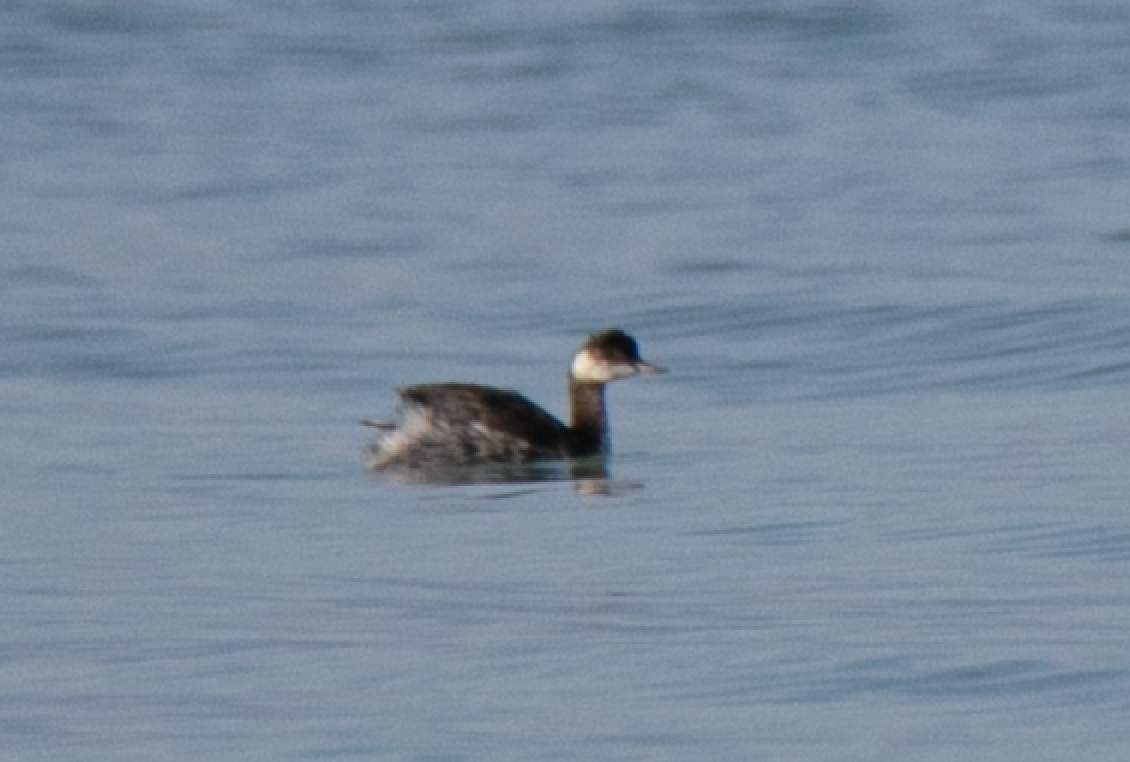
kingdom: Animalia
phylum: Chordata
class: Aves
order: Podicipediformes
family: Podicipedidae
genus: Podiceps
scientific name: Podiceps nigricollis
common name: Black-necked grebe
